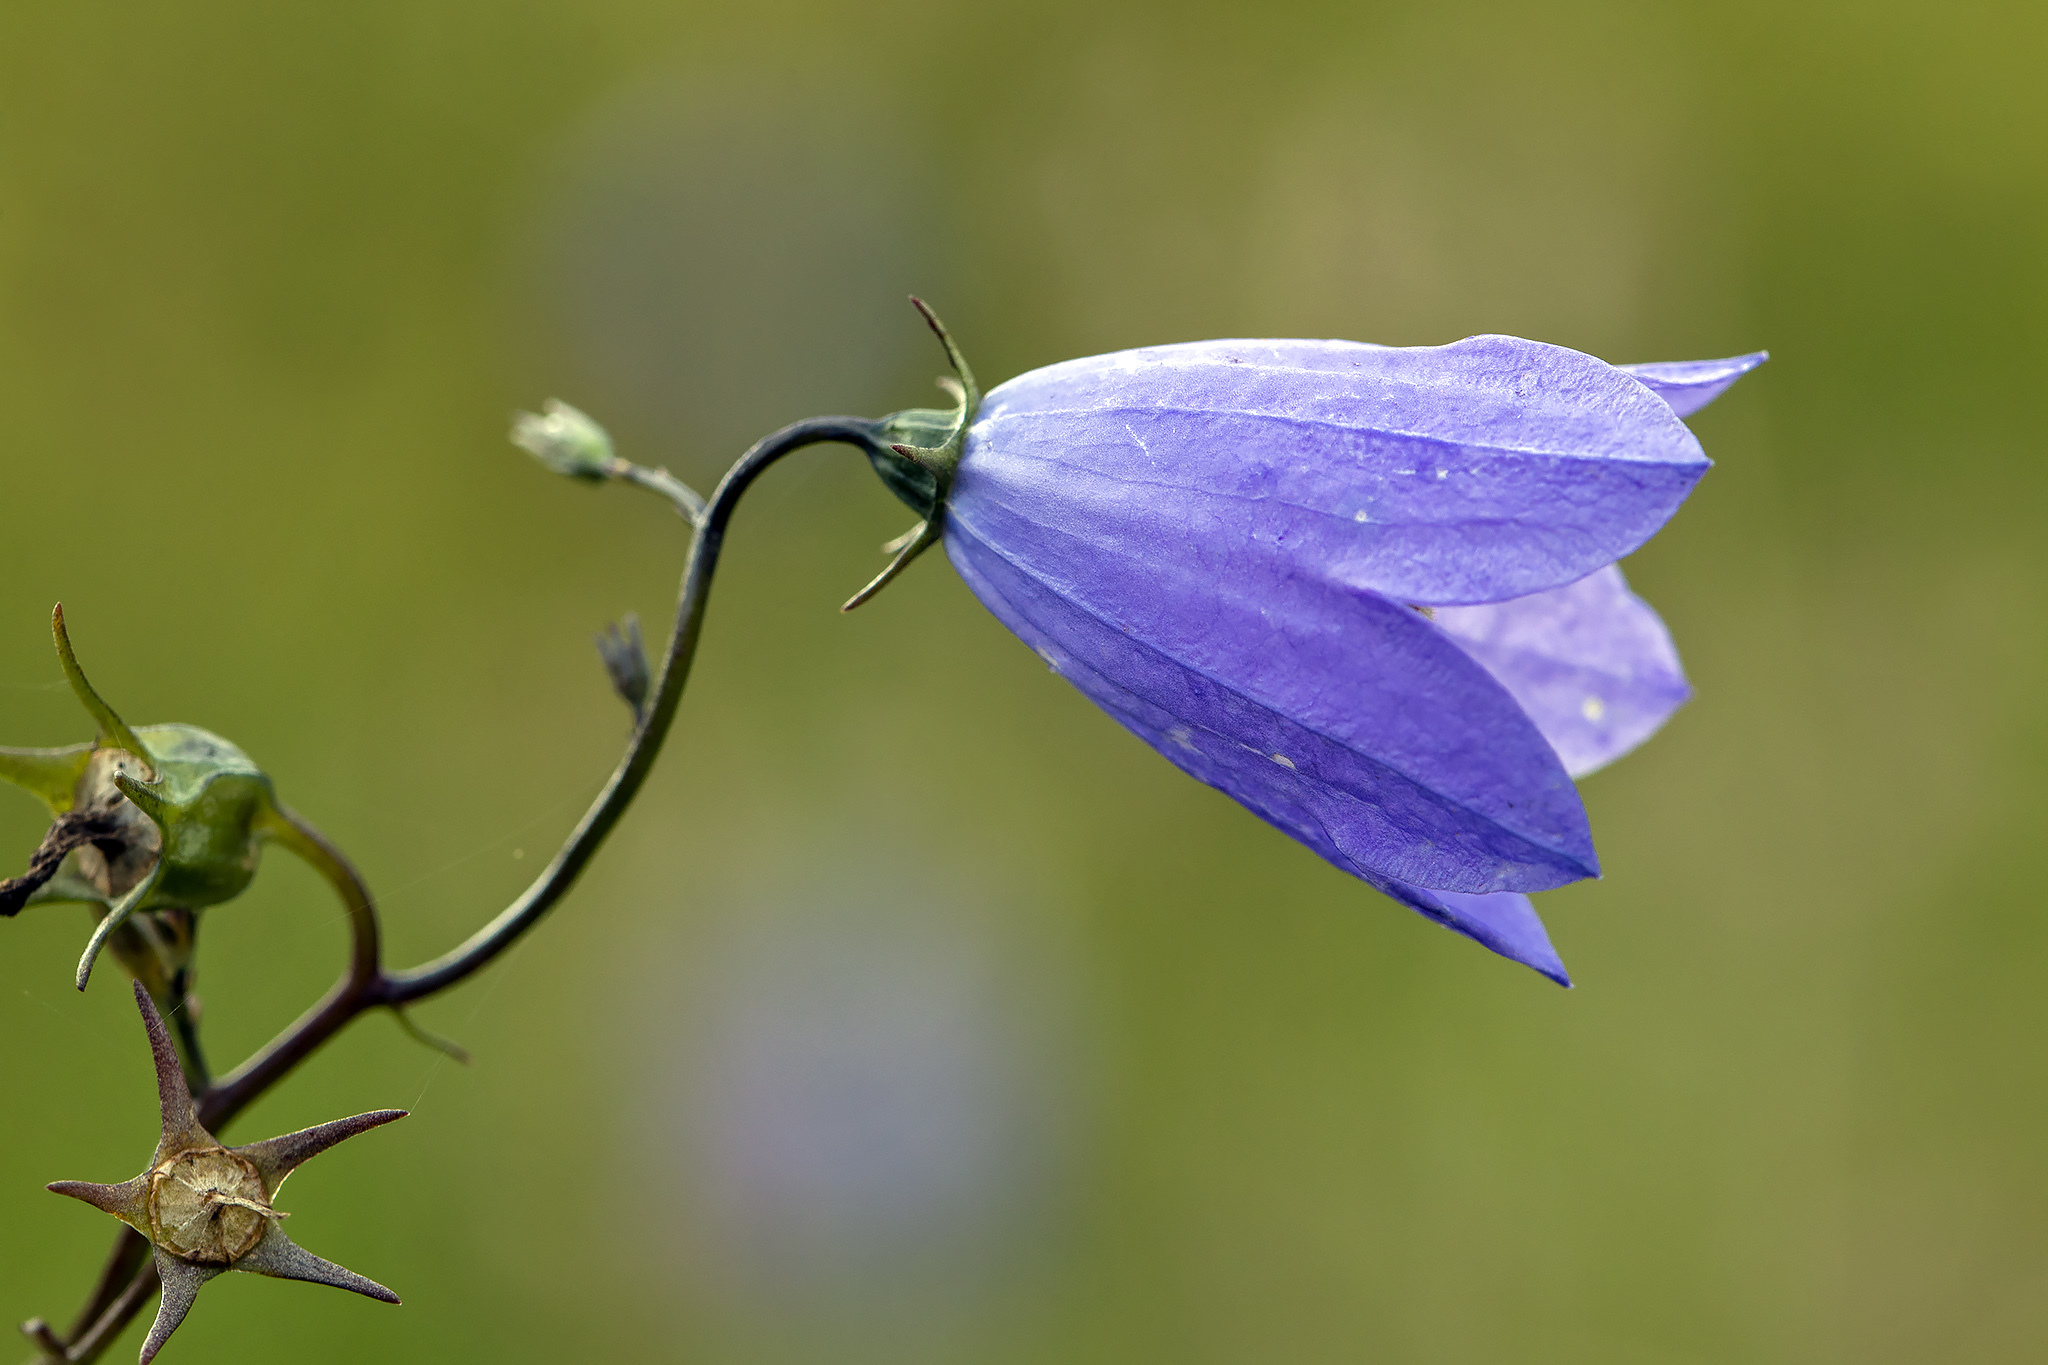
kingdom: Plantae
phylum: Tracheophyta
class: Magnoliopsida
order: Asterales
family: Campanulaceae
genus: Campanula
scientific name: Campanula rotundifolia
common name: Harebell
